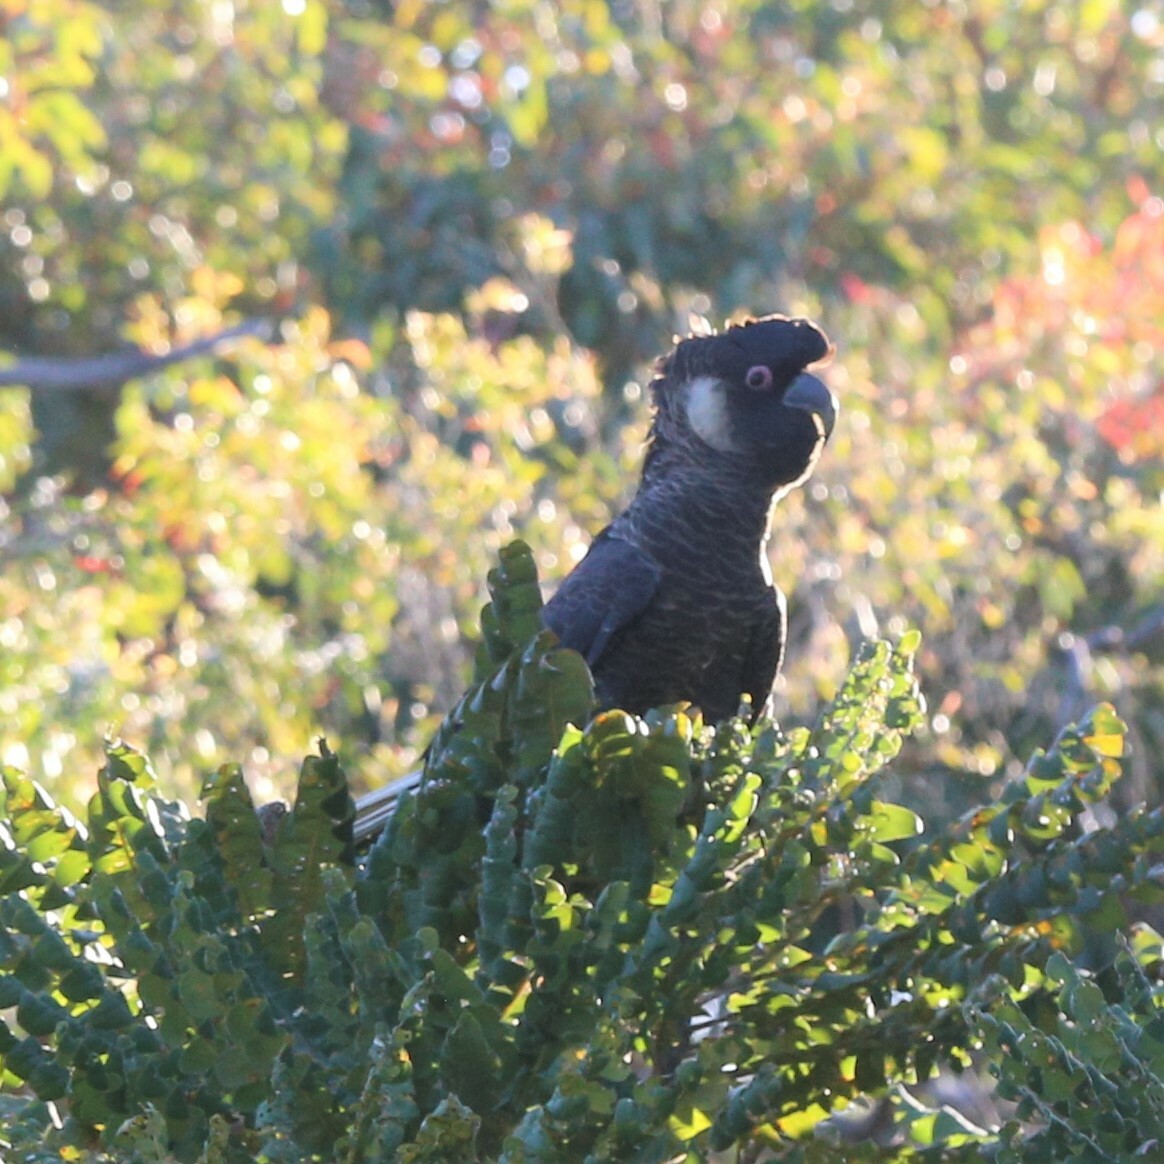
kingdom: Animalia
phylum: Chordata
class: Aves
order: Psittaciformes
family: Cacatuidae
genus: Zanda
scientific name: Zanda baudinii
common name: Long-billed black-cockatoo
